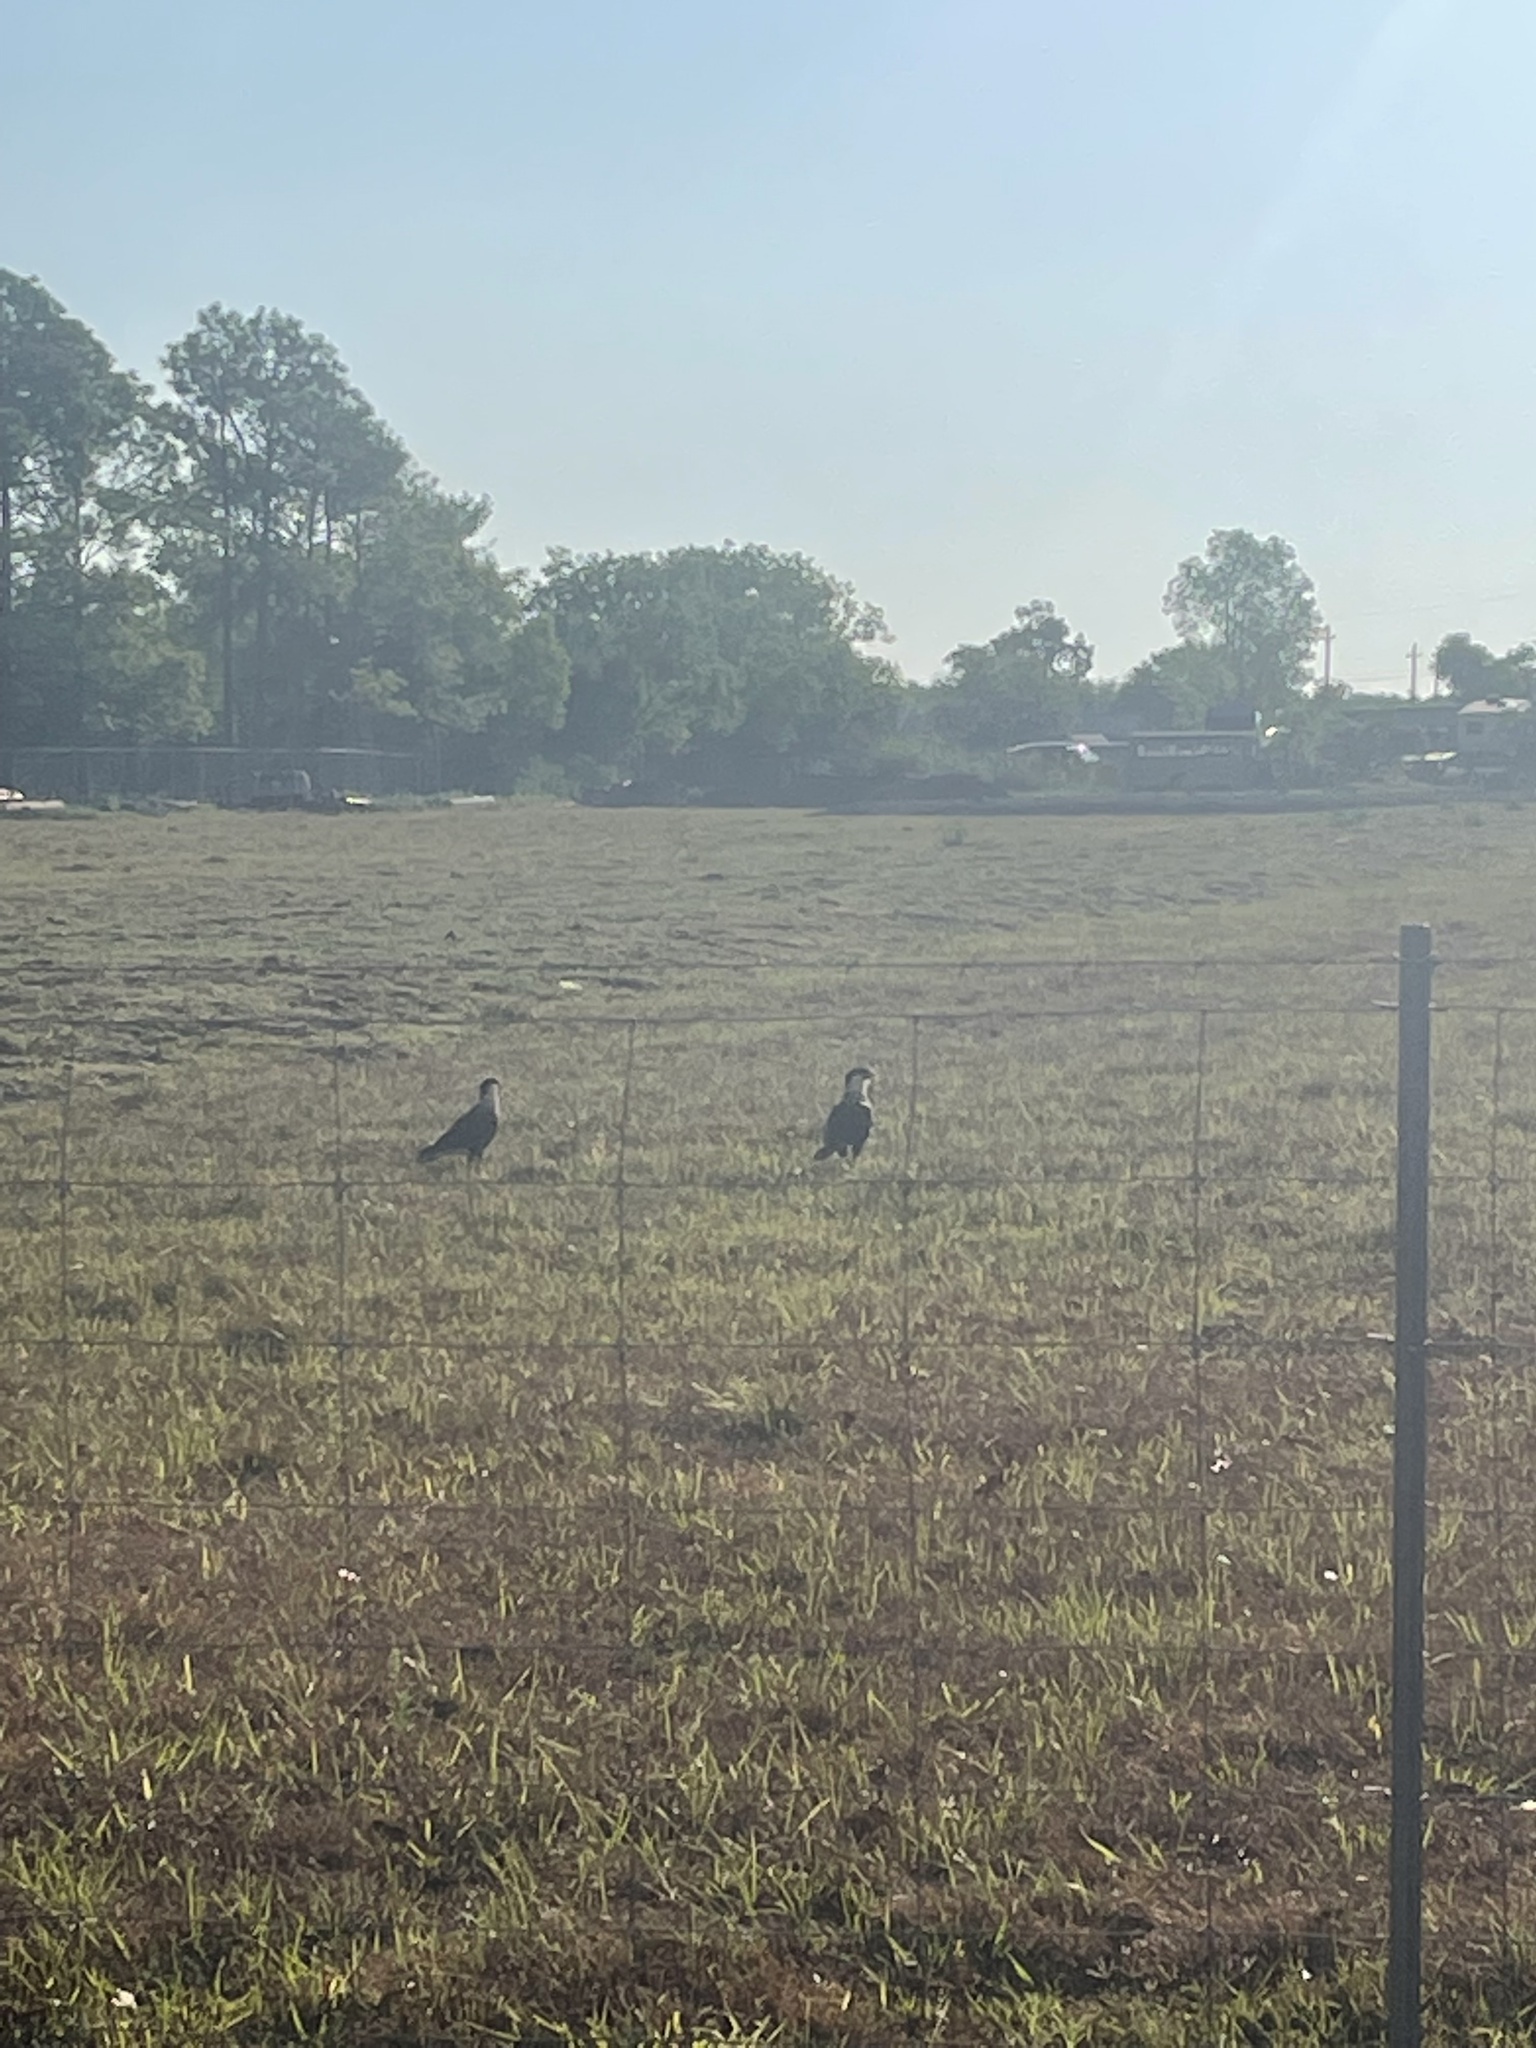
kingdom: Animalia
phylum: Chordata
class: Aves
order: Falconiformes
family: Falconidae
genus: Caracara
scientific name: Caracara plancus
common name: Southern caracara
